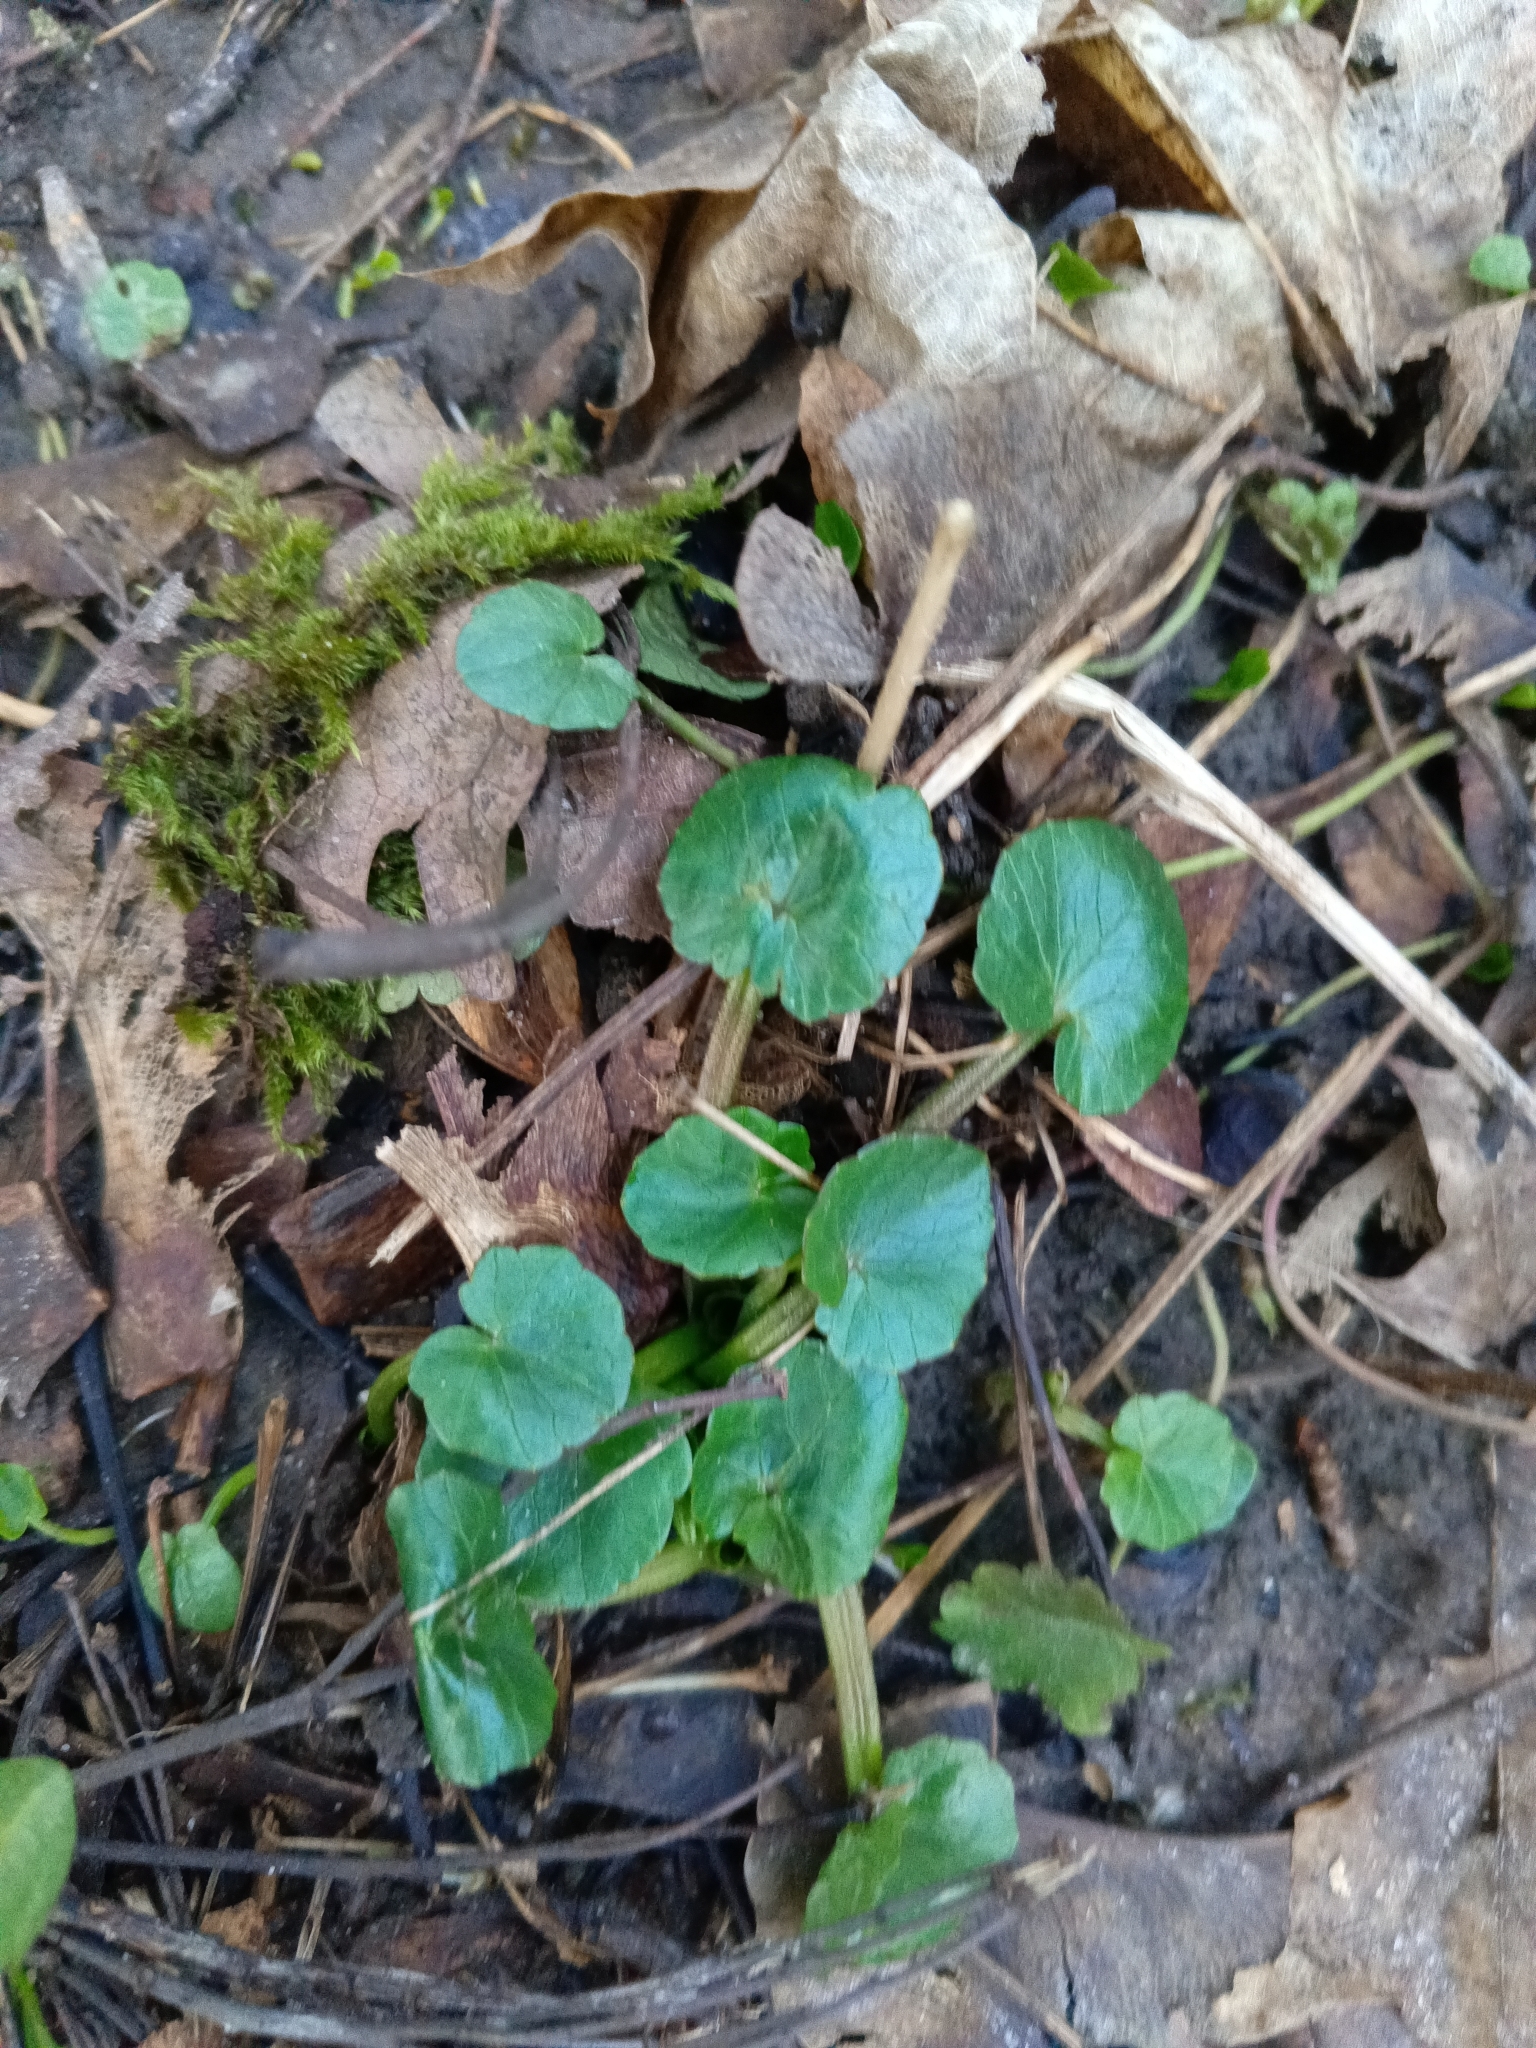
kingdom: Plantae
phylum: Tracheophyta
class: Magnoliopsida
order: Ranunculales
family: Ranunculaceae
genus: Ficaria
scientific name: Ficaria verna
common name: Lesser celandine
